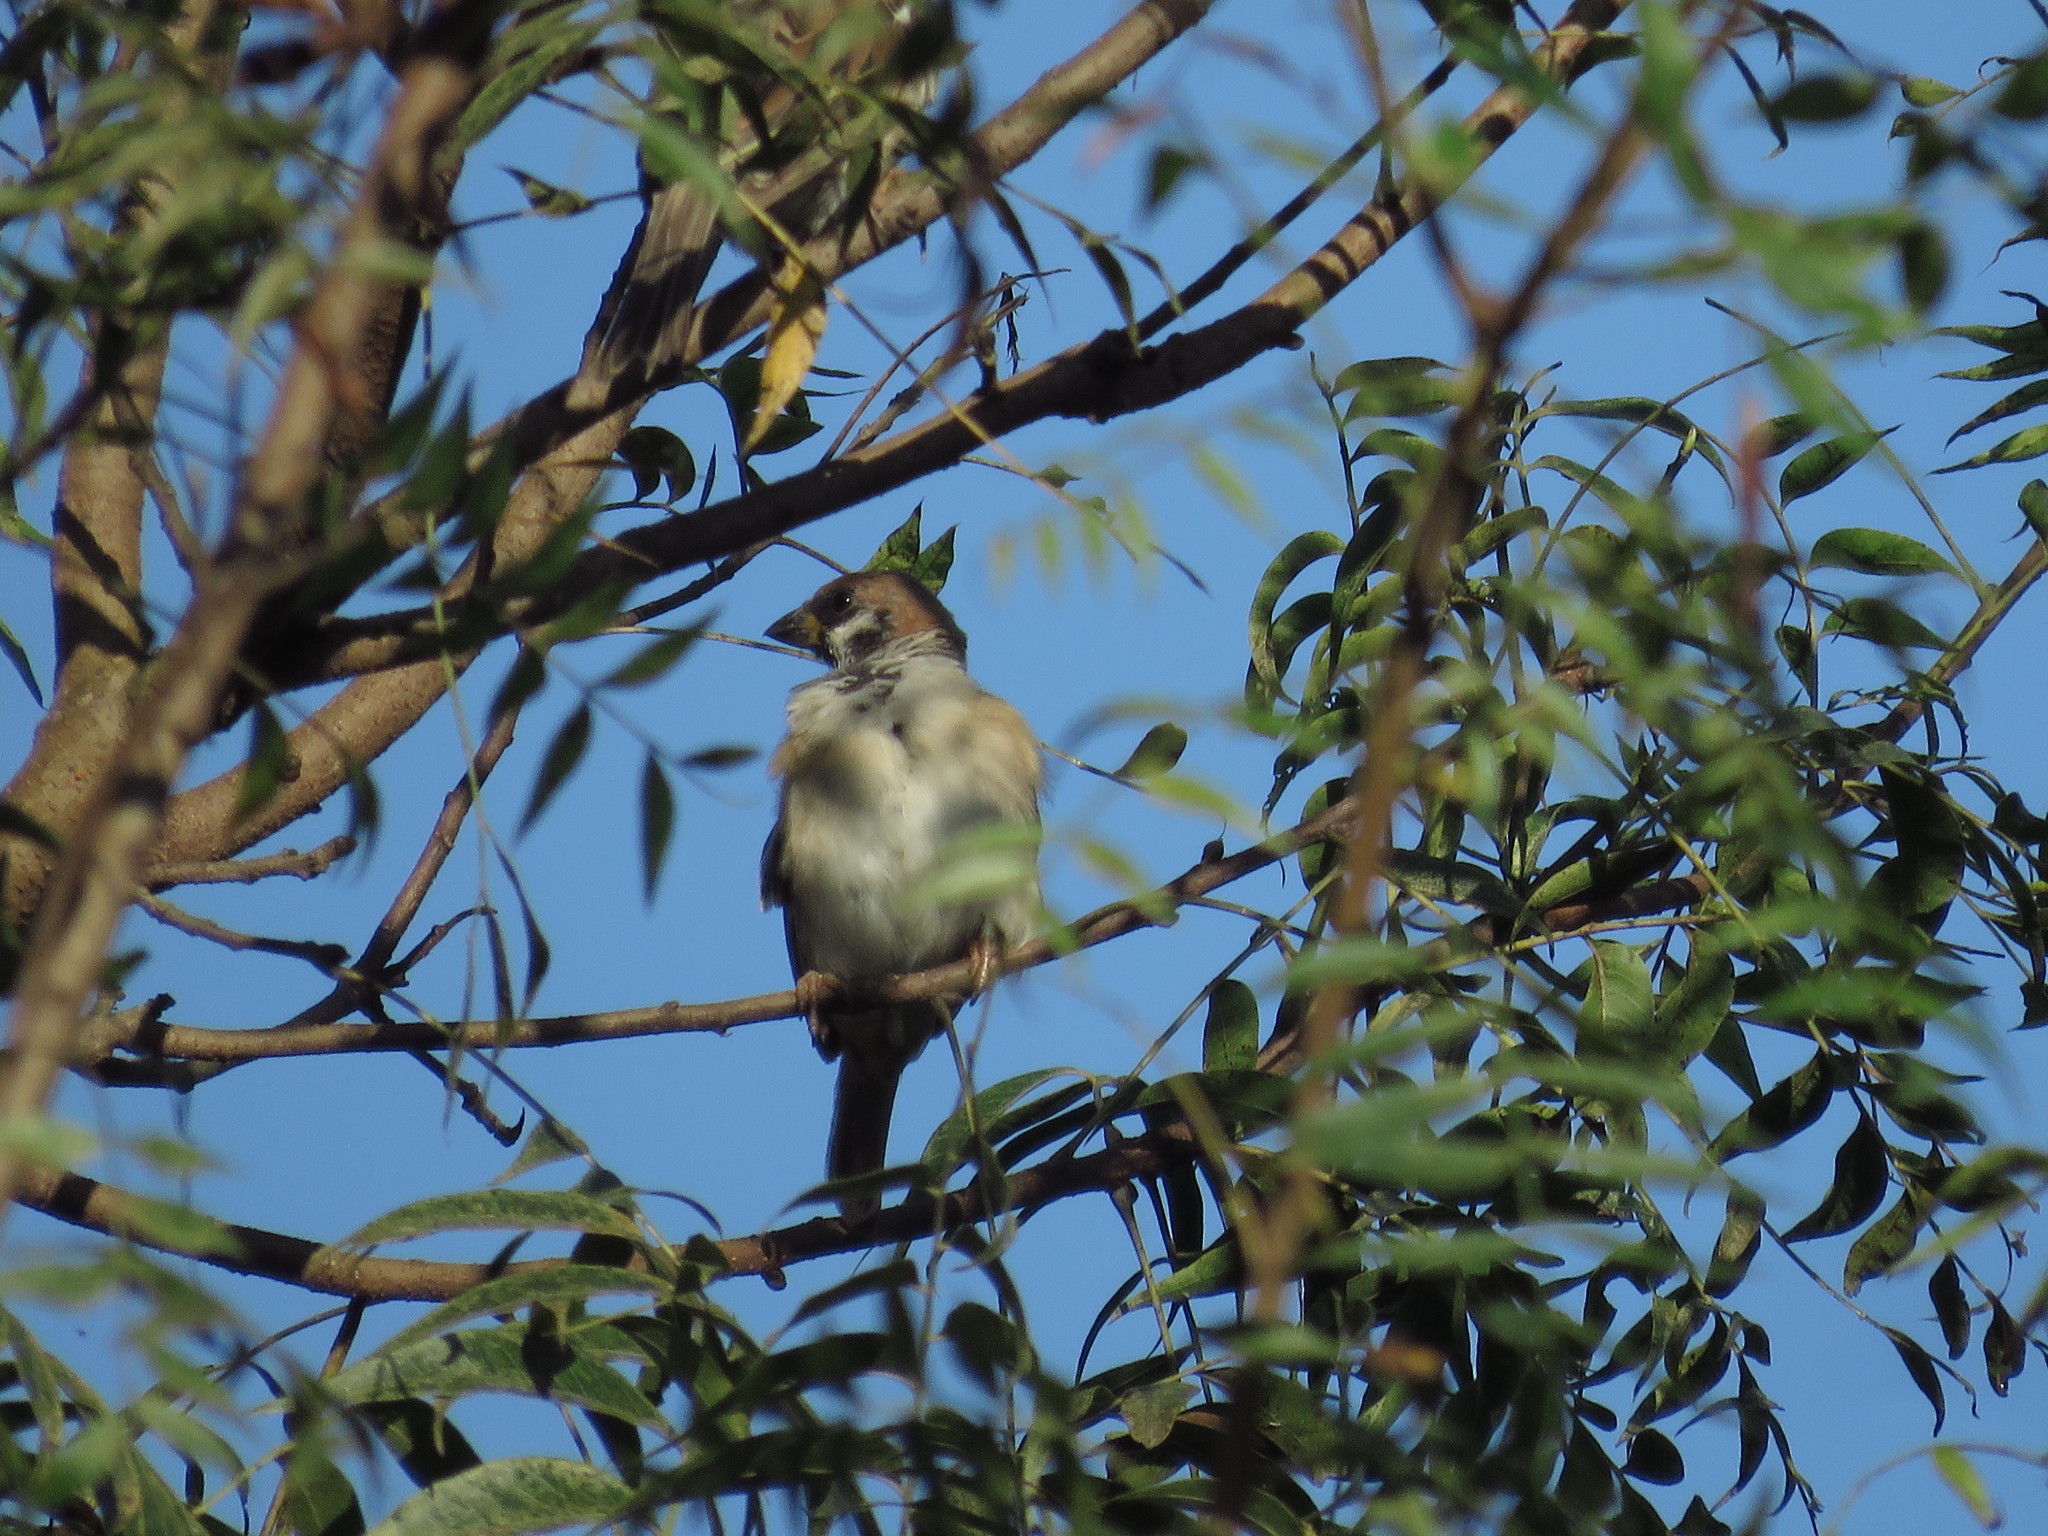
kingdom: Animalia
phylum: Chordata
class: Aves
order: Passeriformes
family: Passeridae
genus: Passer
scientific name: Passer montanus
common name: Eurasian tree sparrow
